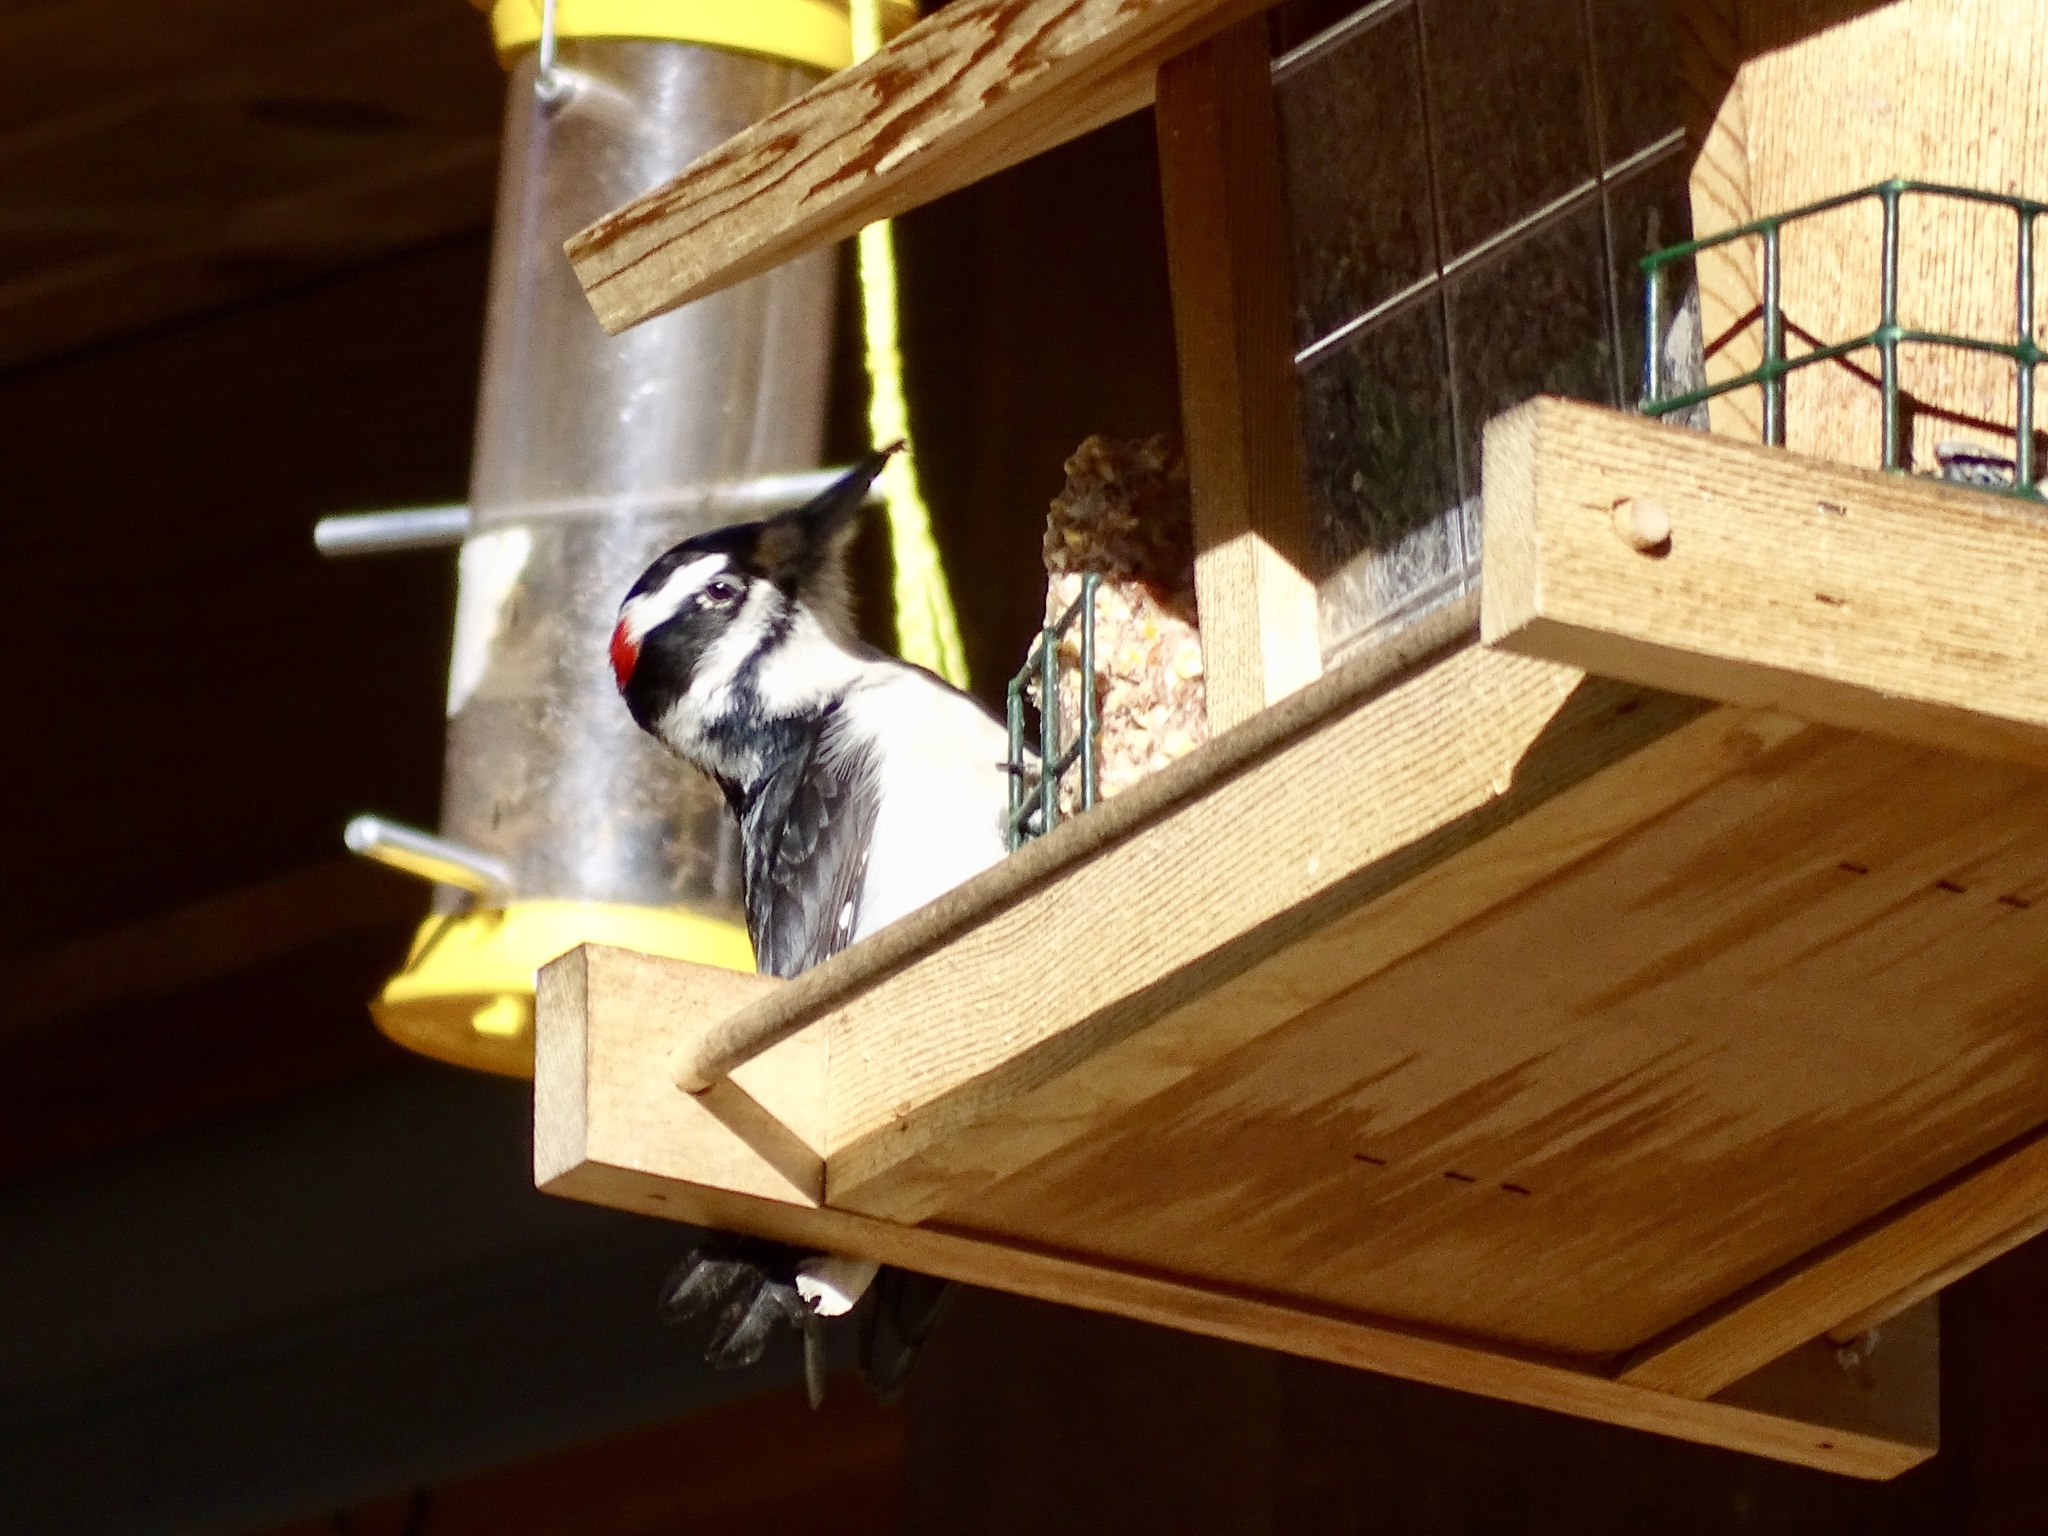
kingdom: Animalia
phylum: Chordata
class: Aves
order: Piciformes
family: Picidae
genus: Leuconotopicus
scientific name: Leuconotopicus villosus
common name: Hairy woodpecker
